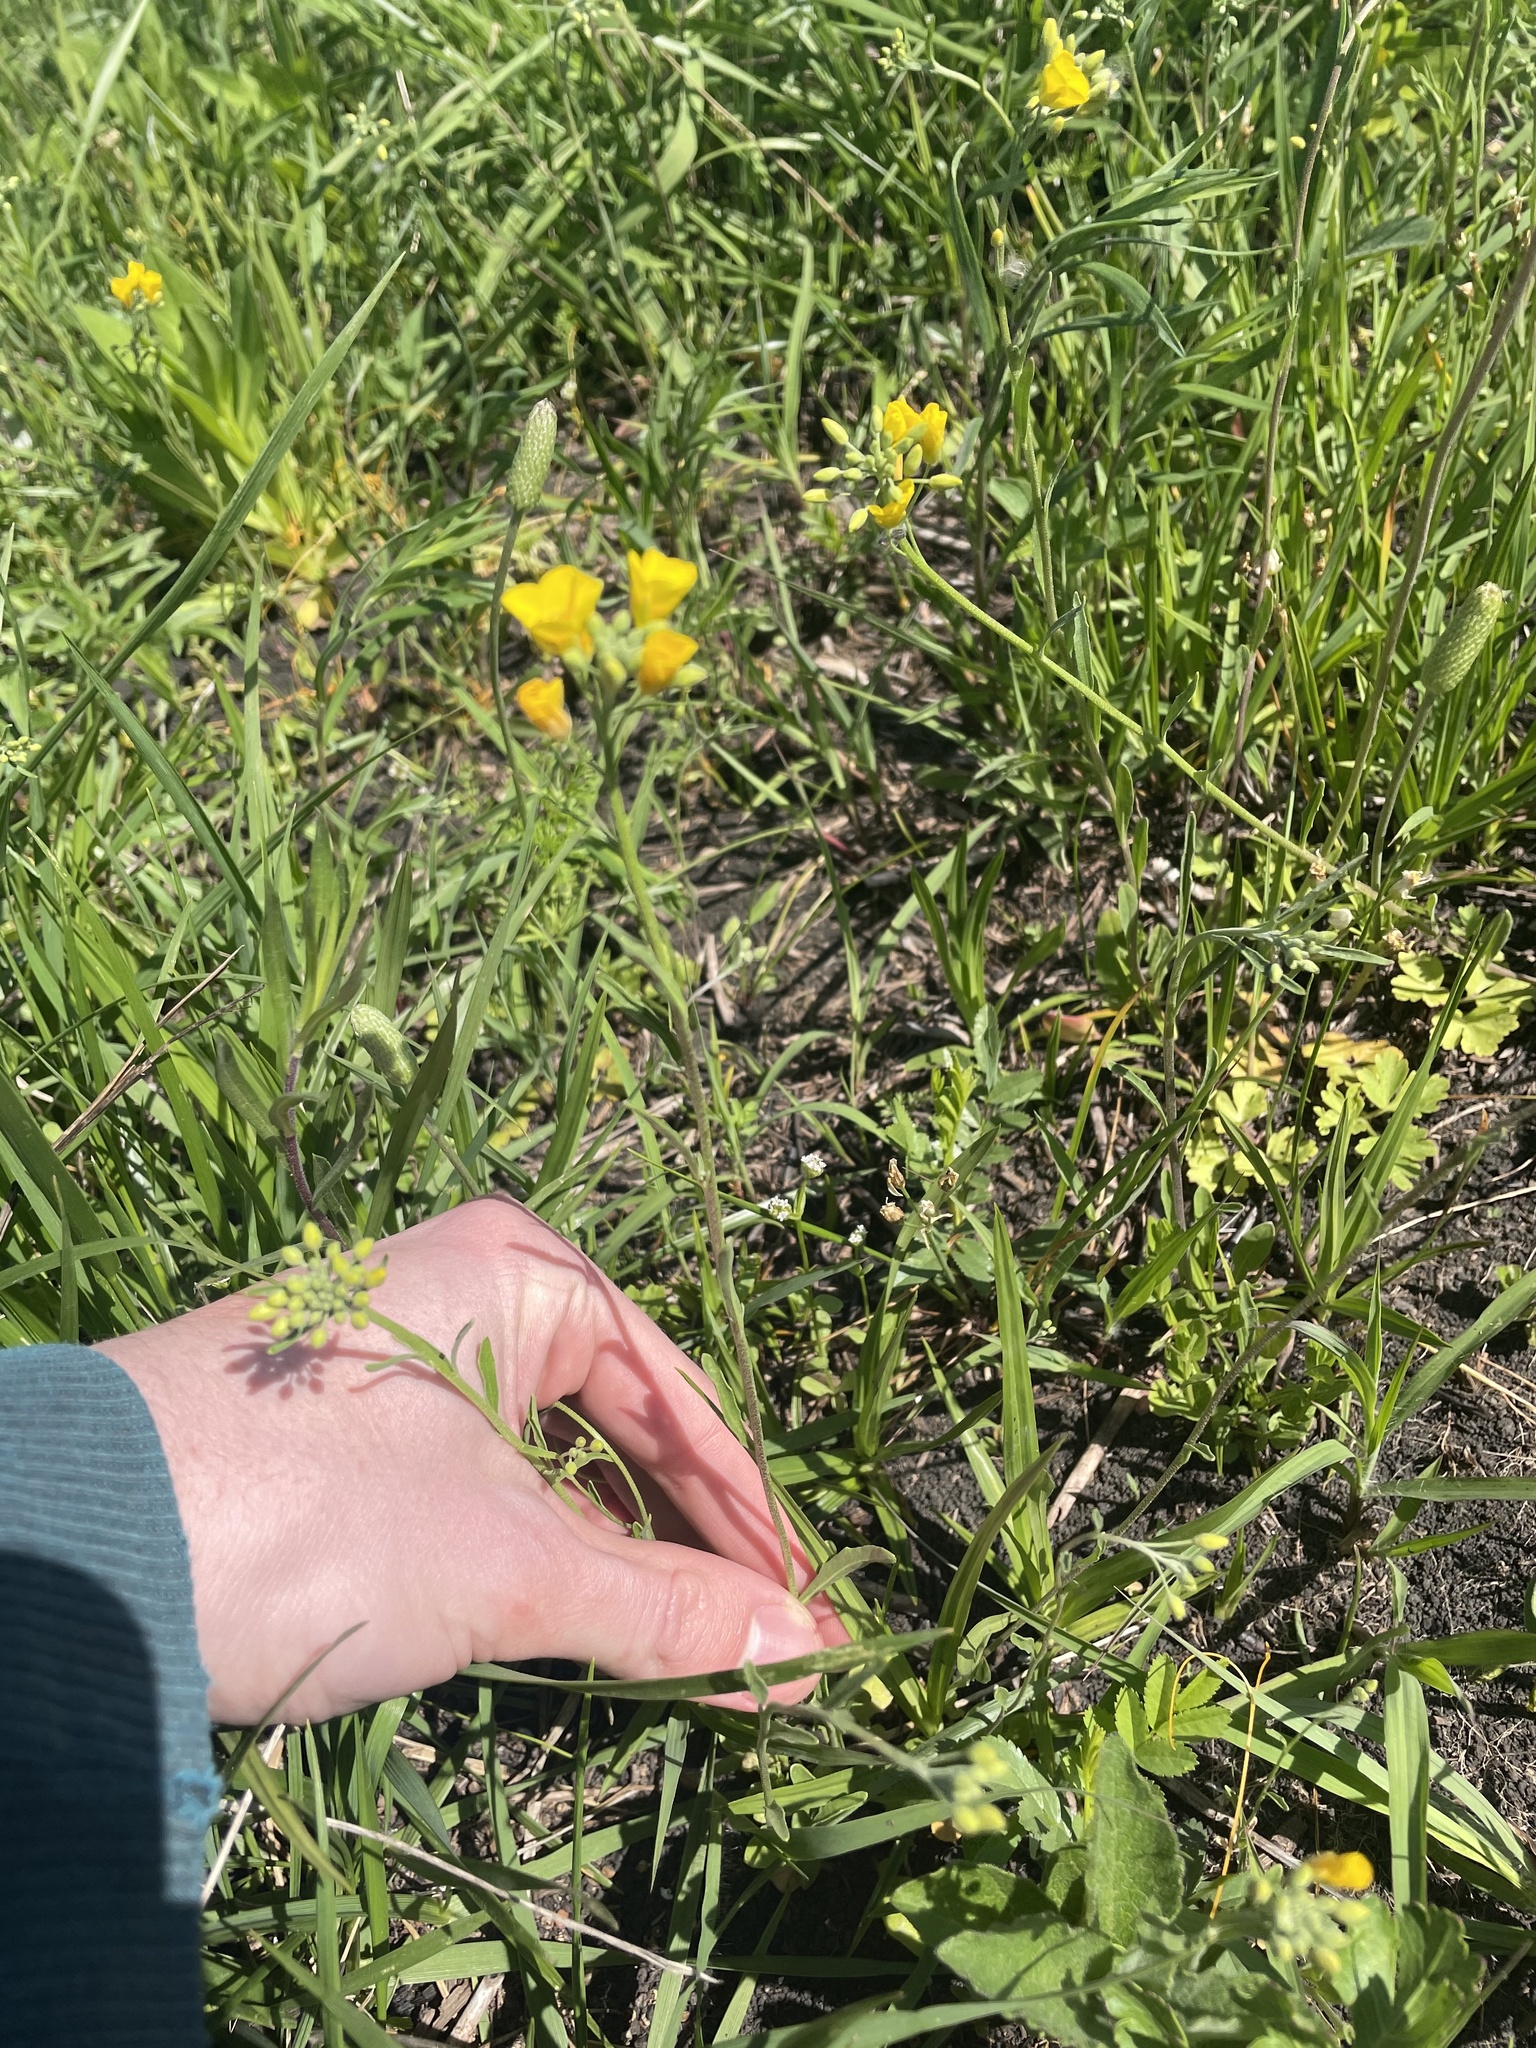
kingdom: Plantae
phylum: Tracheophyta
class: Magnoliopsida
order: Brassicales
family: Brassicaceae
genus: Physaria
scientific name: Physaria gracilis
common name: Spreading bladderpod
